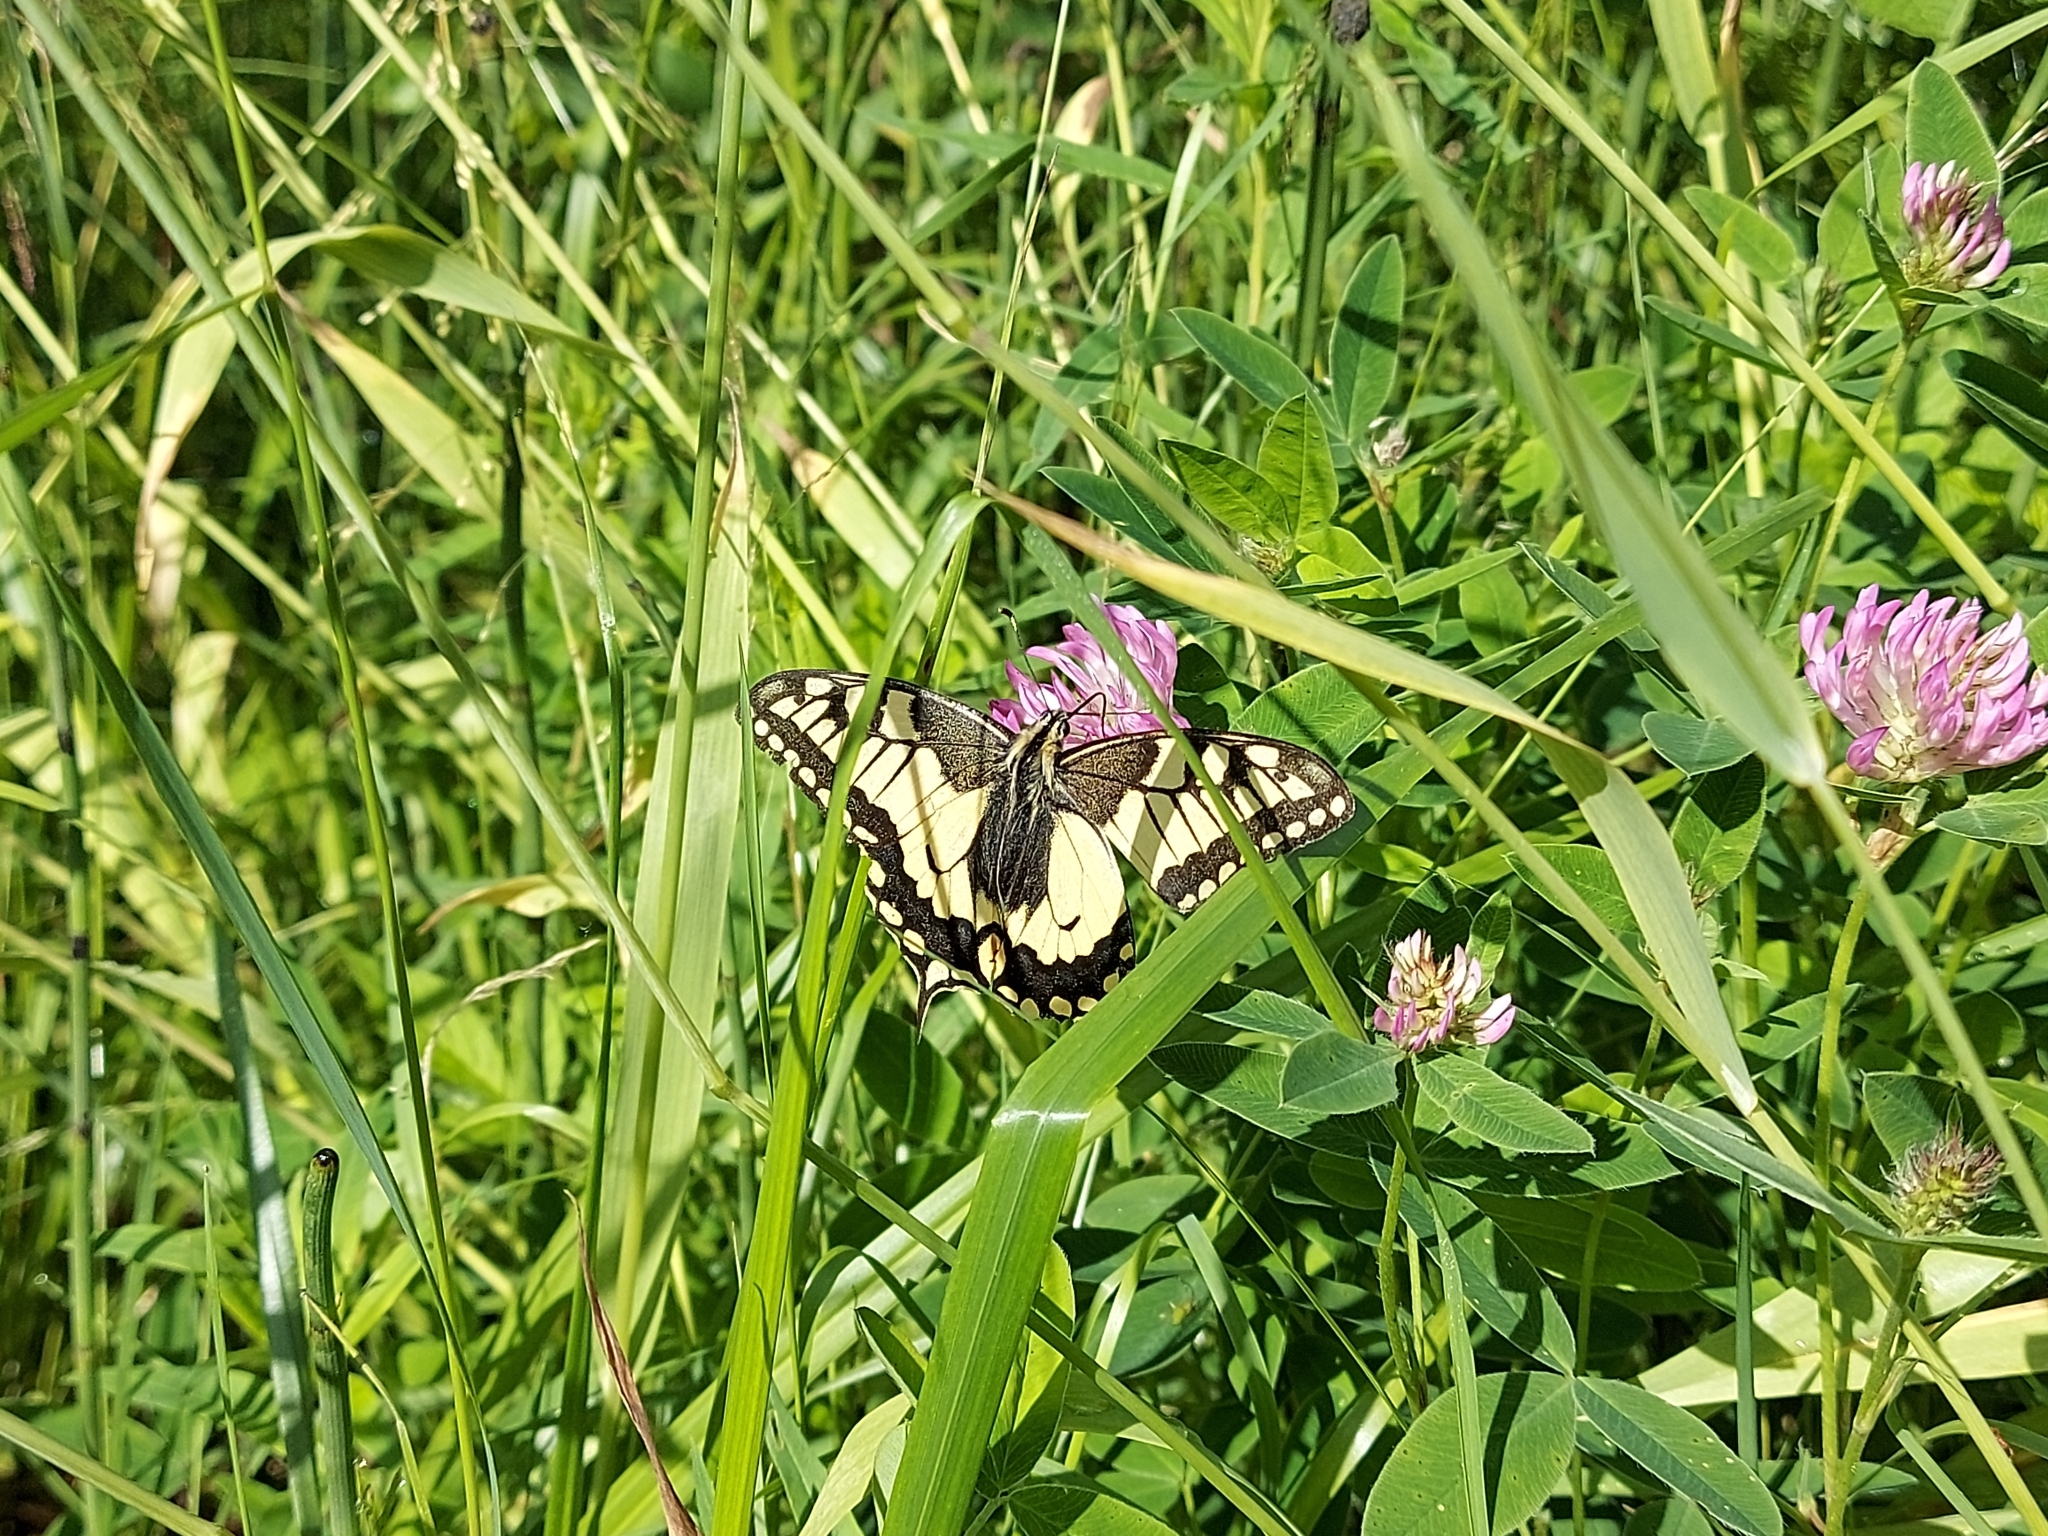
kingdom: Animalia
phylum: Arthropoda
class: Insecta
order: Lepidoptera
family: Papilionidae
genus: Papilio
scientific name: Papilio machaon
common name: Swallowtail
